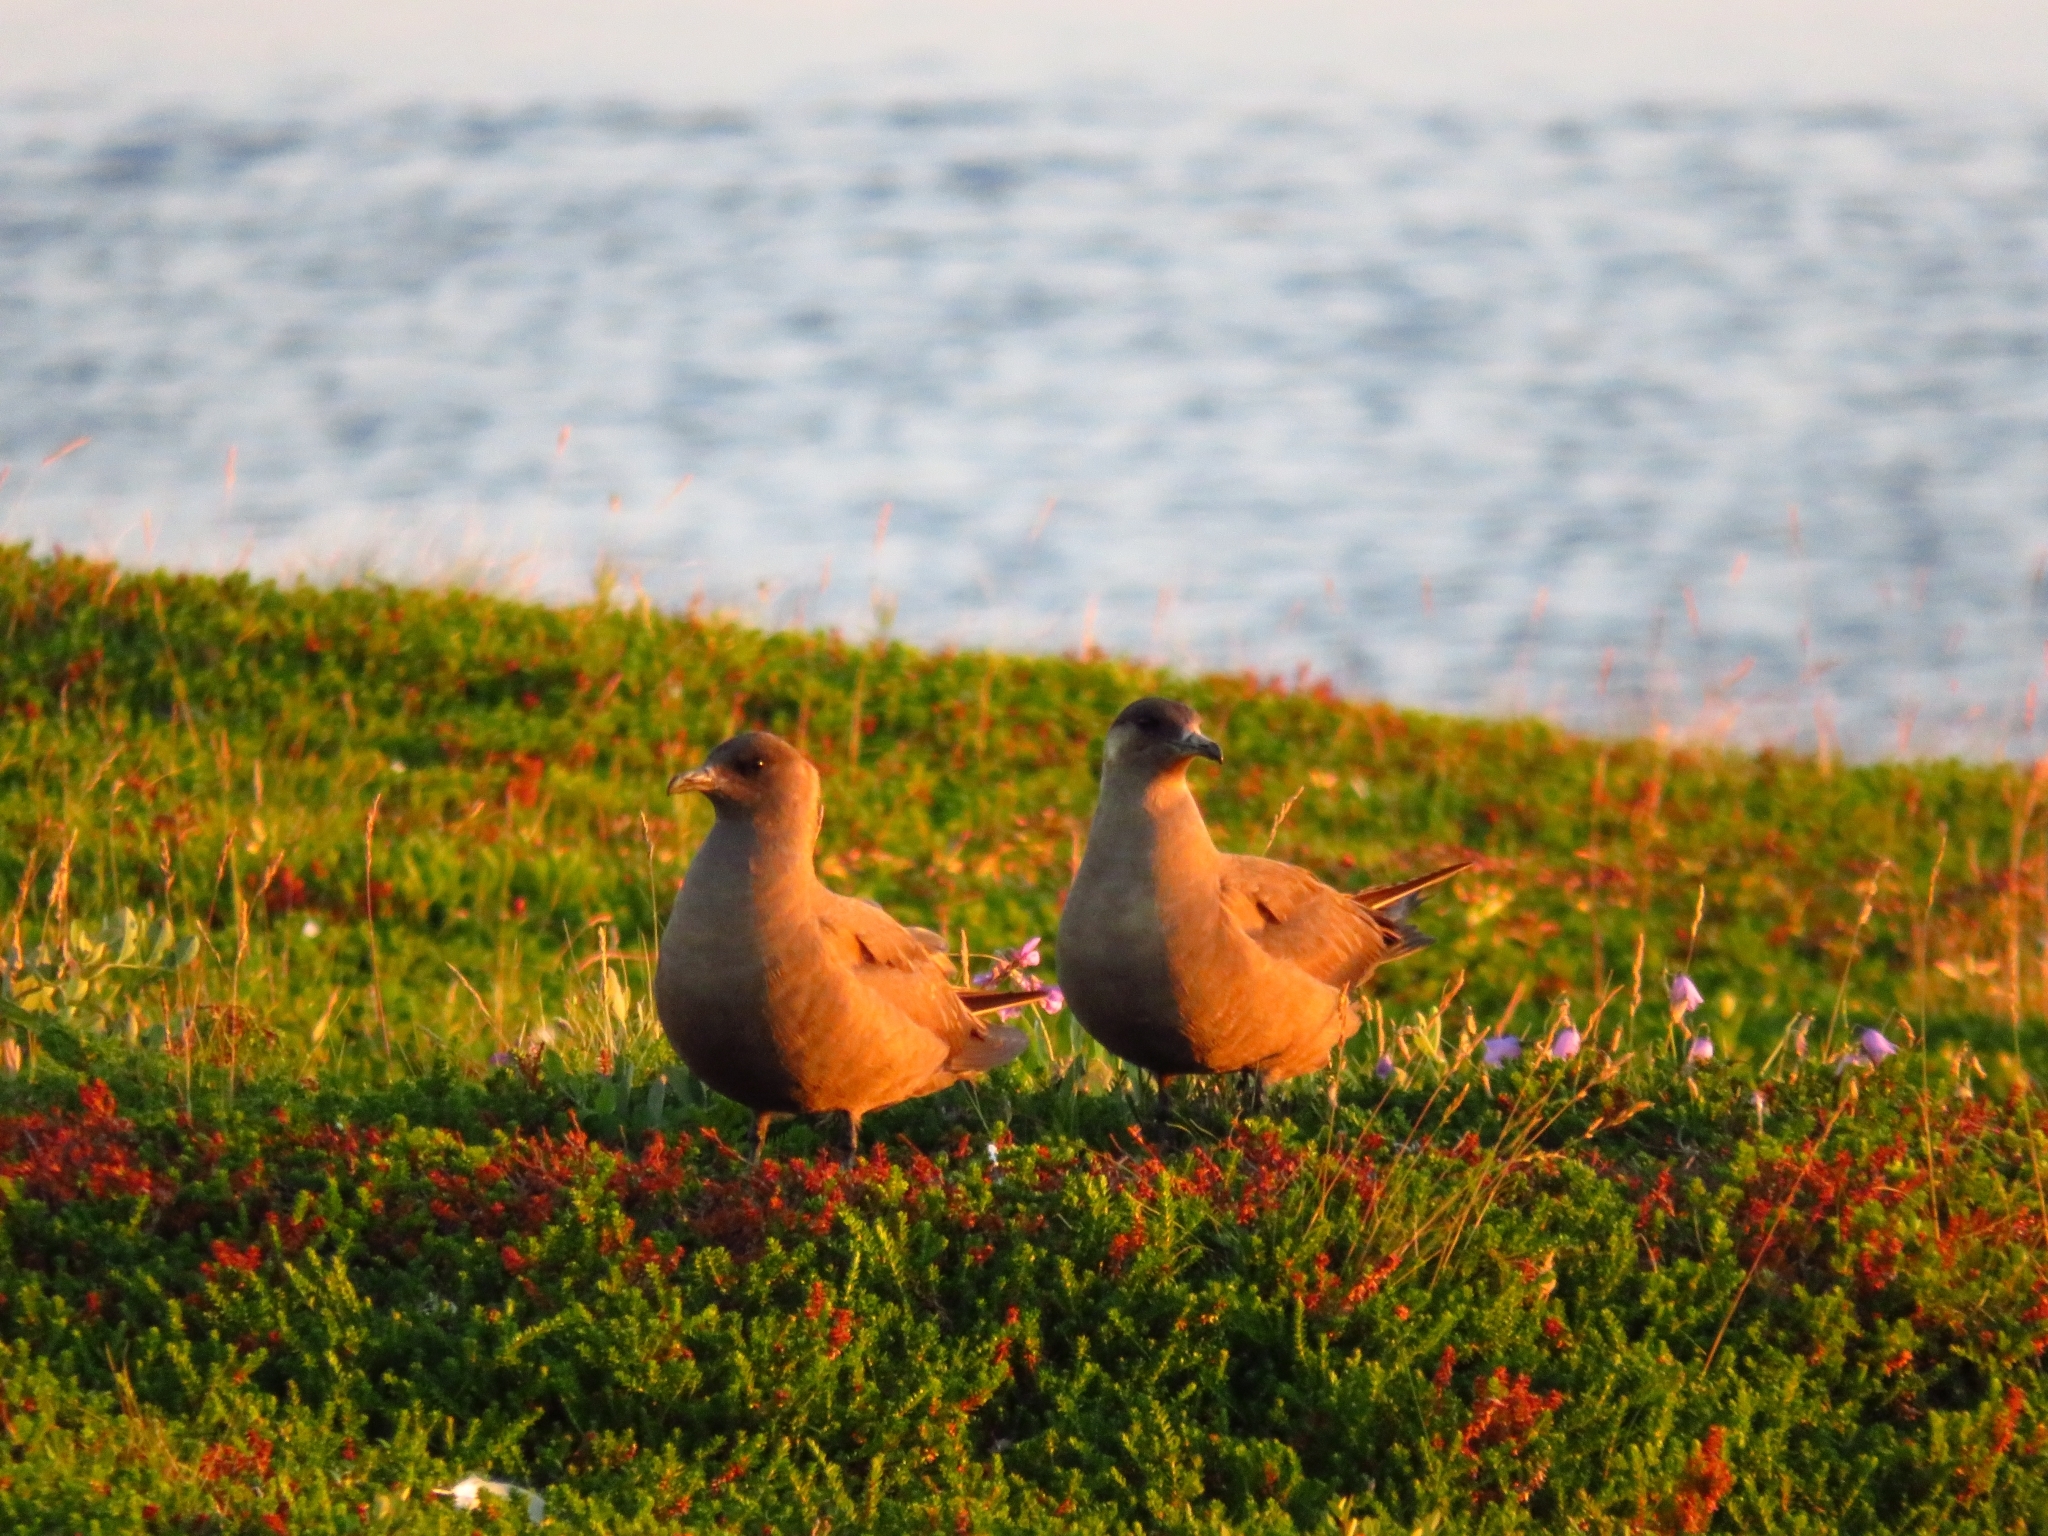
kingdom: Animalia
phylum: Chordata
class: Aves
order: Charadriiformes
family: Stercorariidae
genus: Stercorarius
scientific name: Stercorarius parasiticus
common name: Parasitic jaeger
